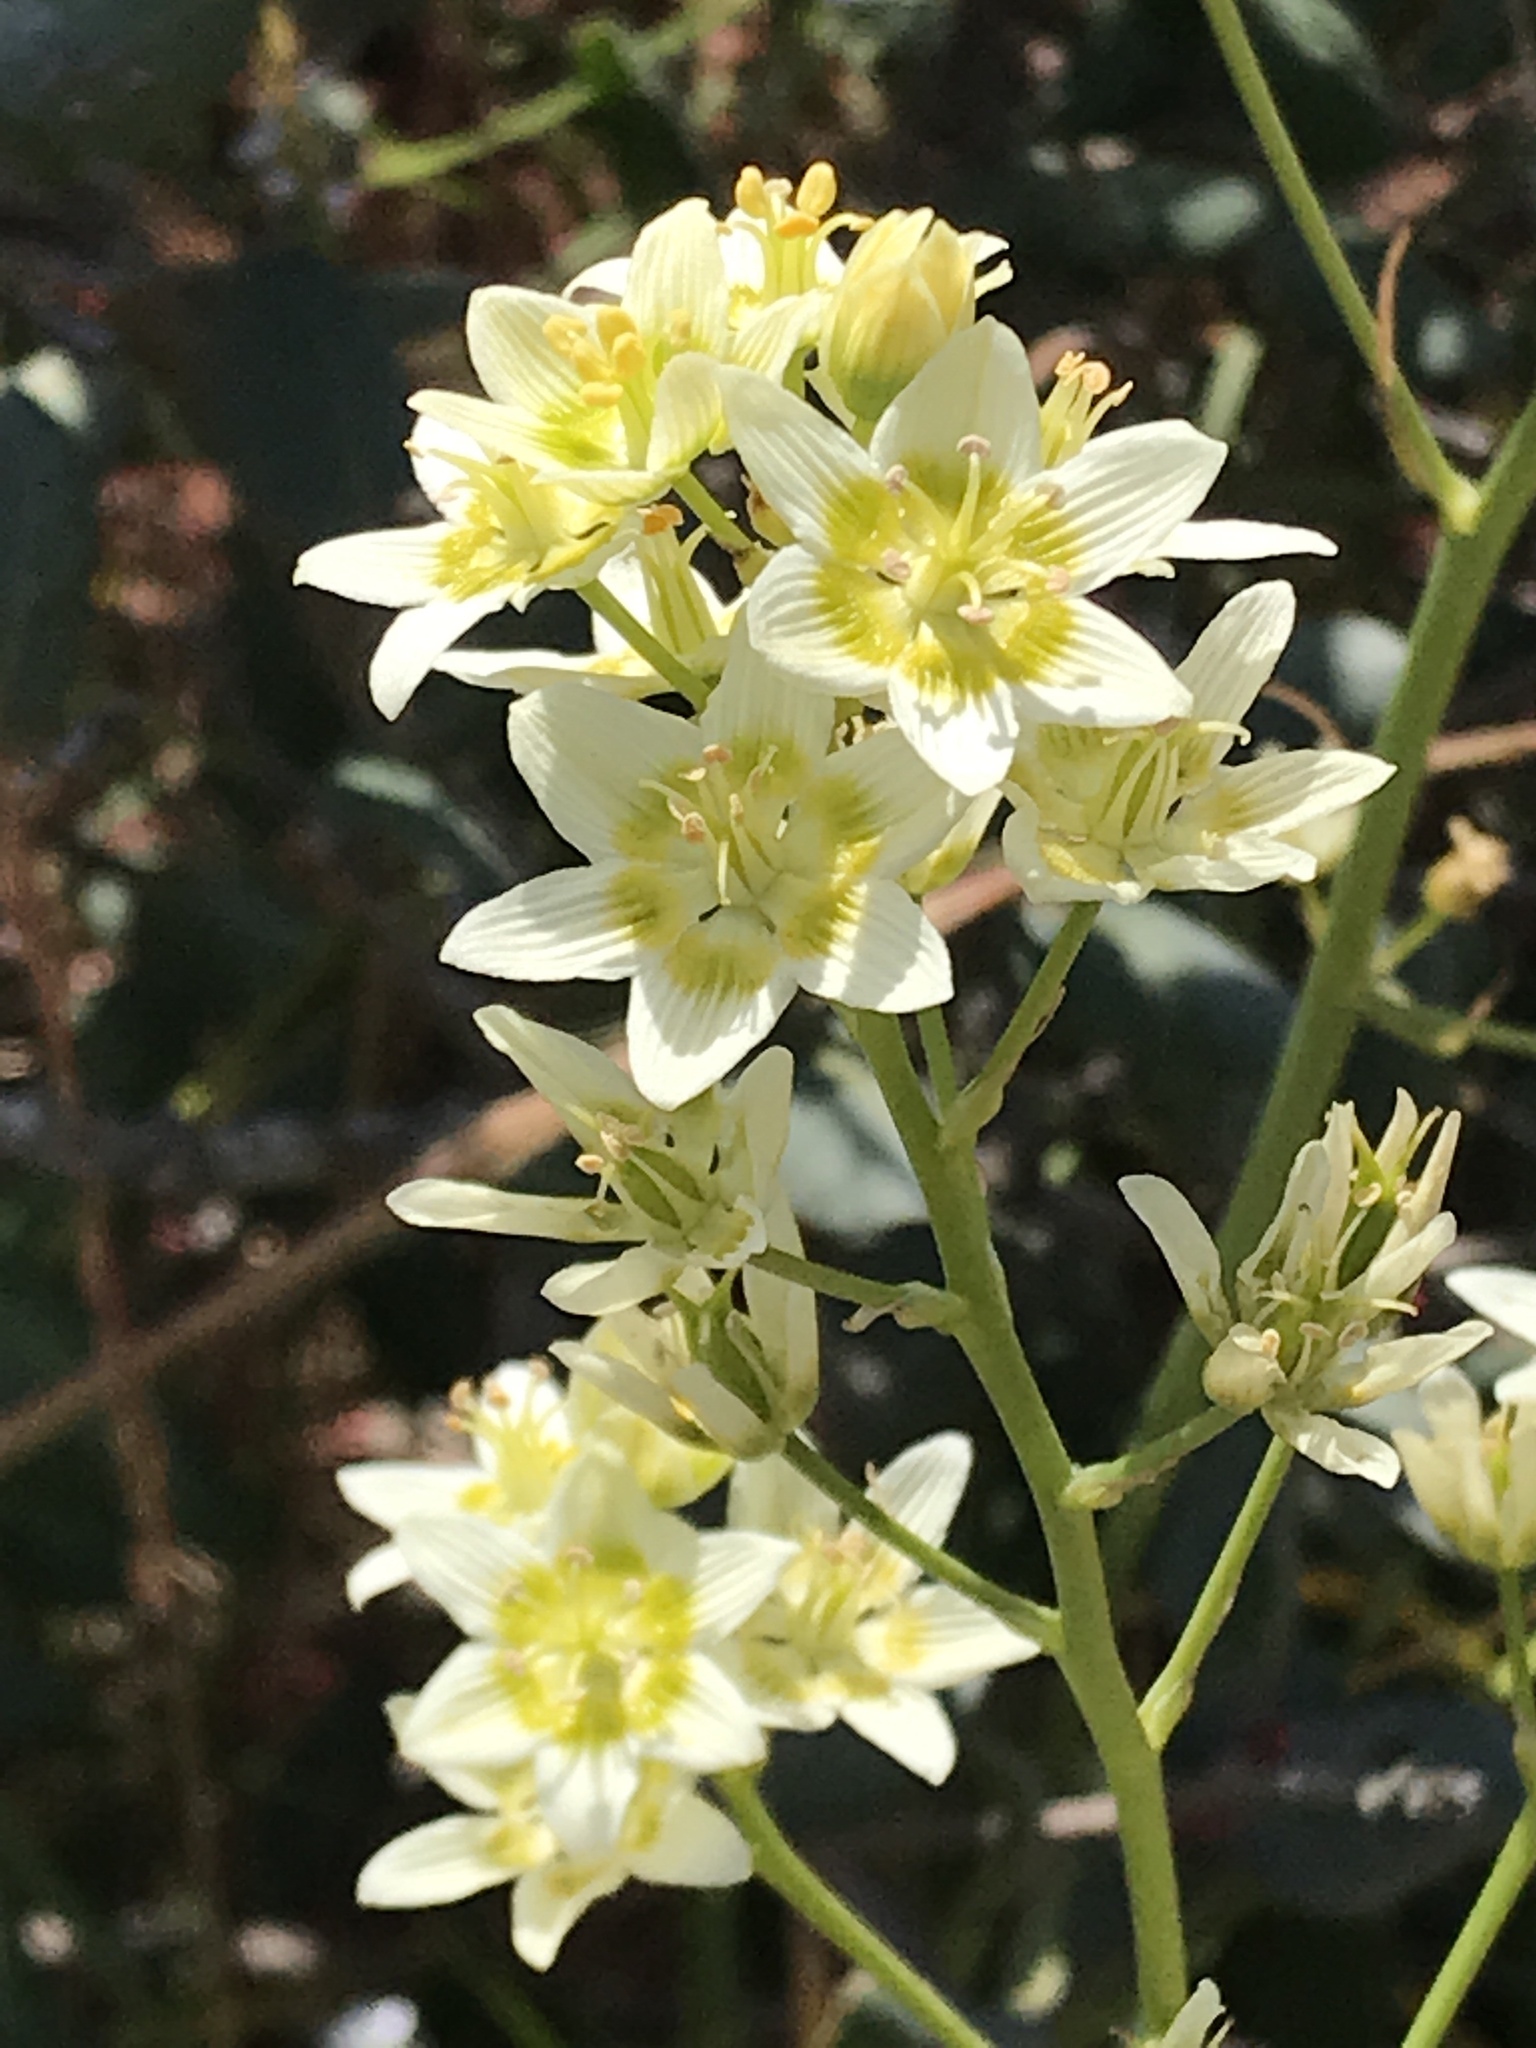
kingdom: Plantae
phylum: Tracheophyta
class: Liliopsida
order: Liliales
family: Melanthiaceae
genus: Toxicoscordion
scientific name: Toxicoscordion fremontii
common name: Fremont's death camas
